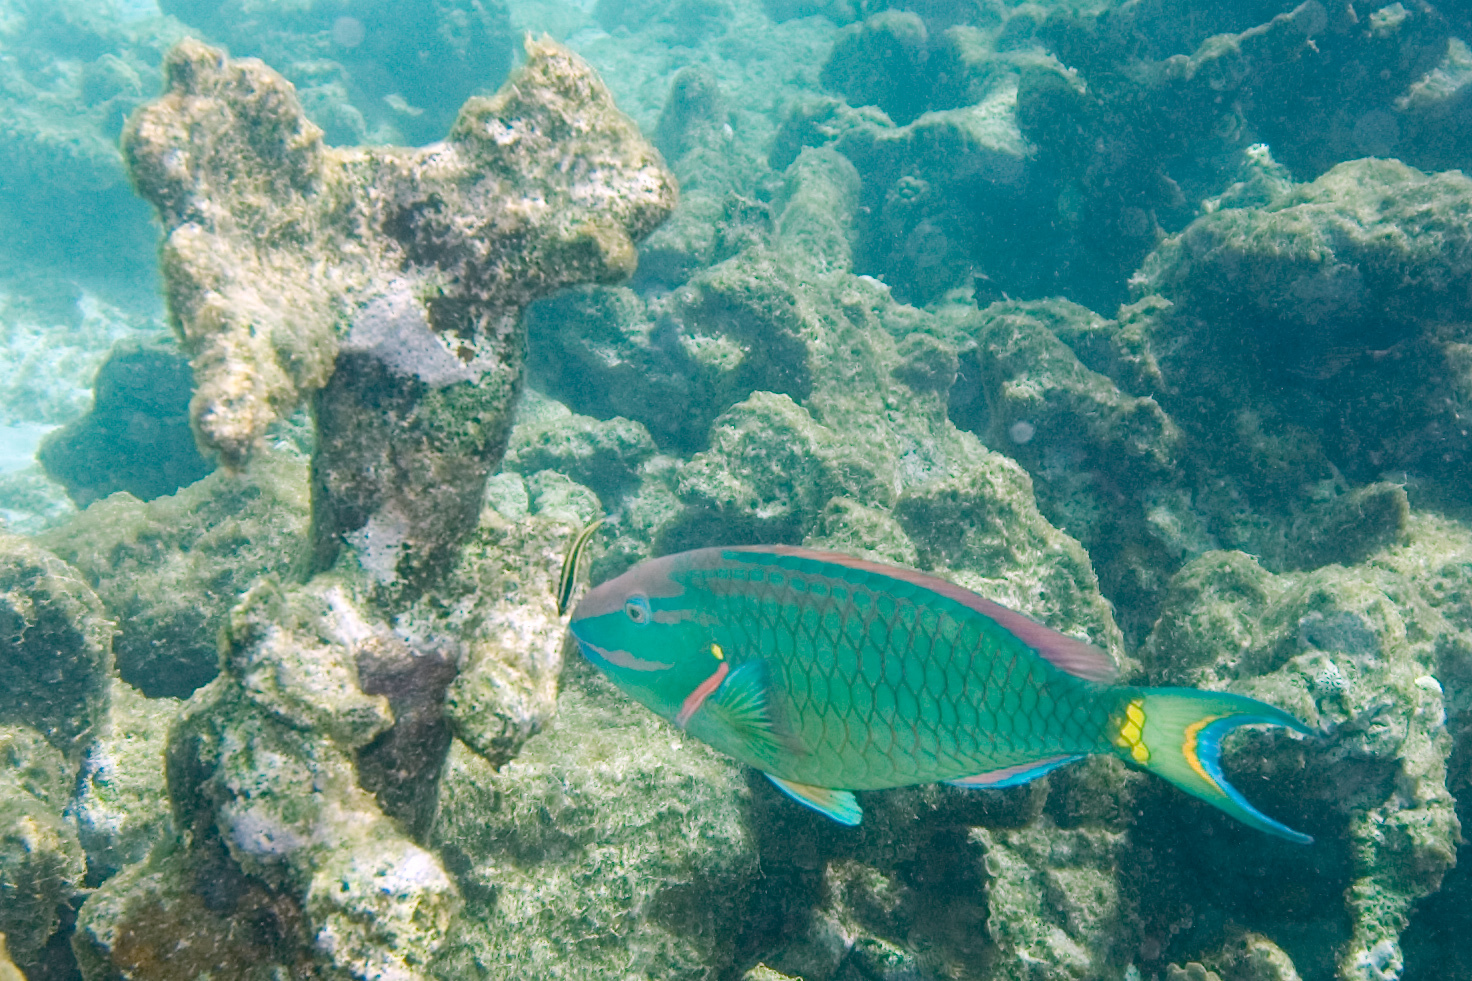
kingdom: Animalia
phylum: Chordata
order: Perciformes
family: Scaridae
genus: Sparisoma
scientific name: Sparisoma viride
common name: Stoplight parrotfish
